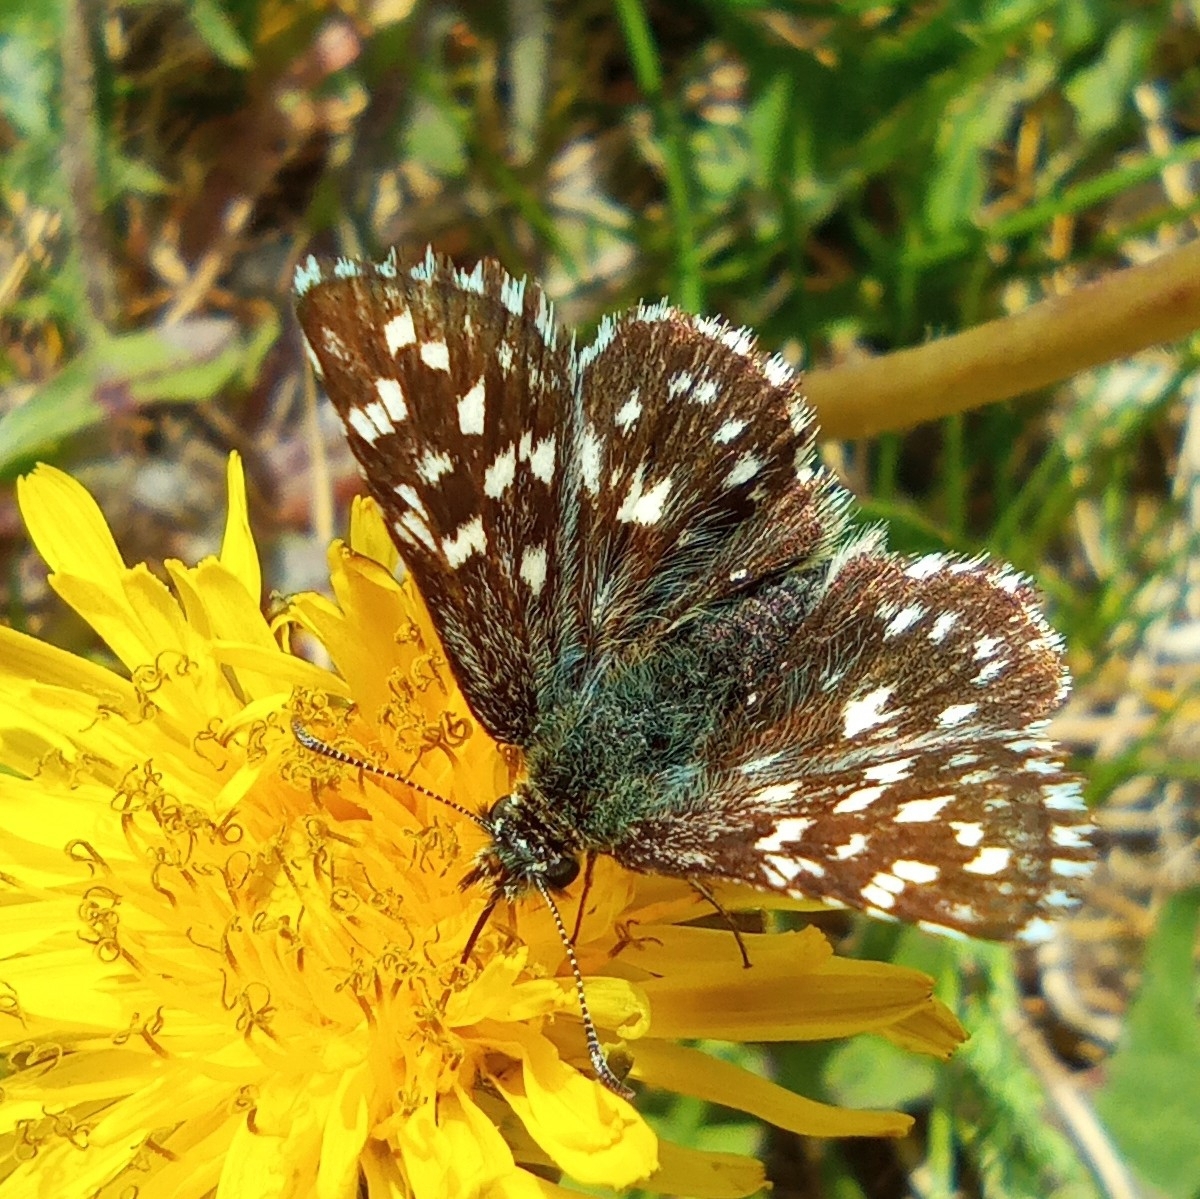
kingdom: Animalia
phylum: Arthropoda
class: Insecta
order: Lepidoptera
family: Hesperiidae
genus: Pyrgus
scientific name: Pyrgus malvae
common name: Grizzled skipper
